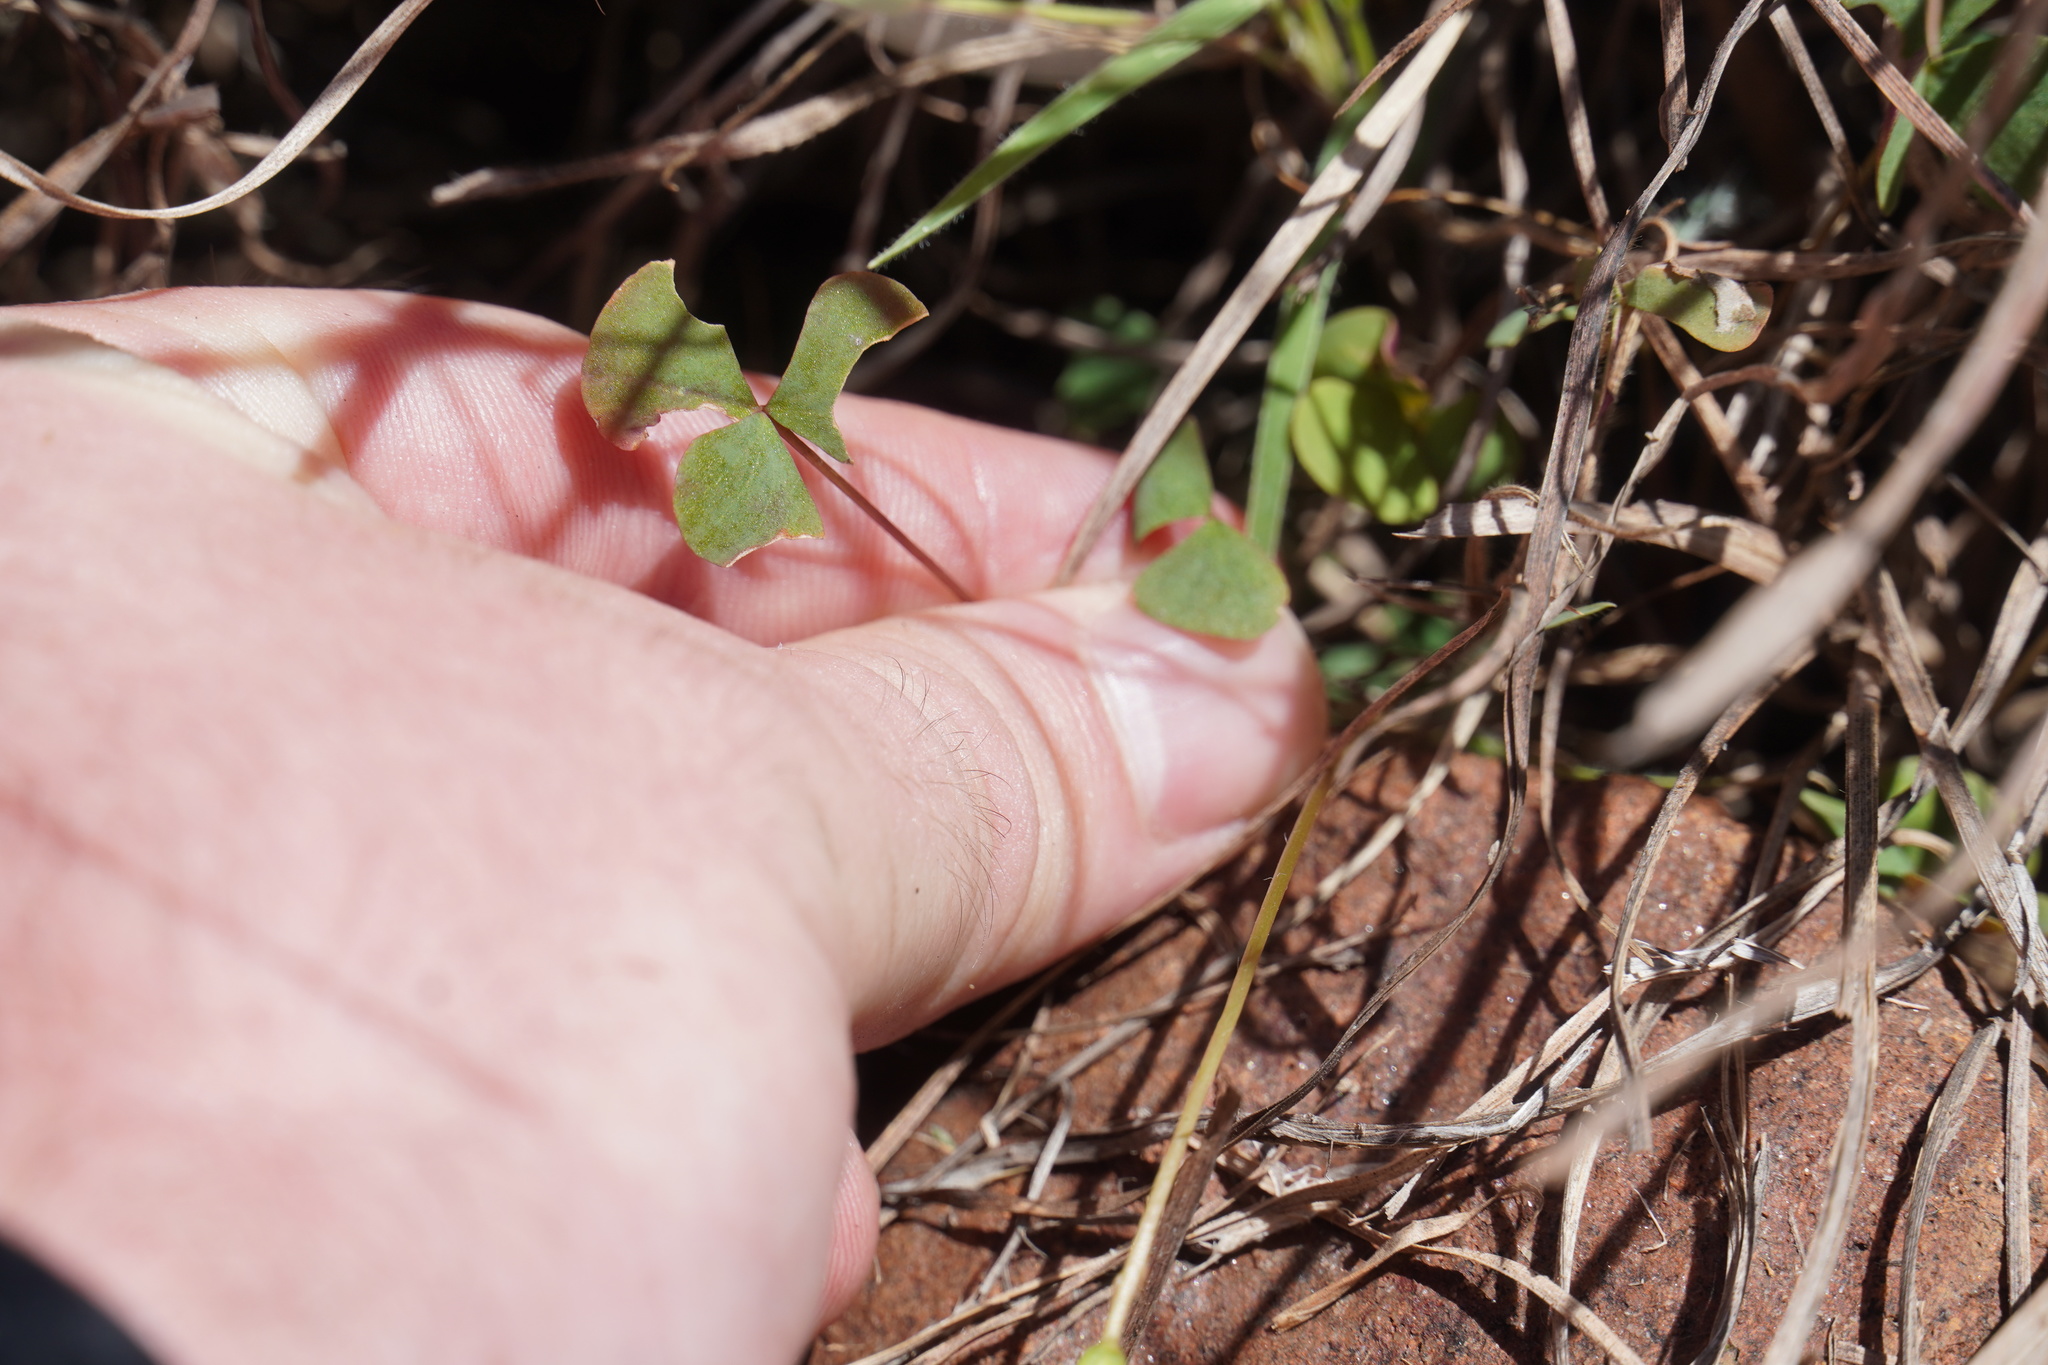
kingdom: Plantae
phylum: Tracheophyta
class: Magnoliopsida
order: Oxalidales
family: Oxalidaceae
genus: Oxalis
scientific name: Oxalis obliquifolia
